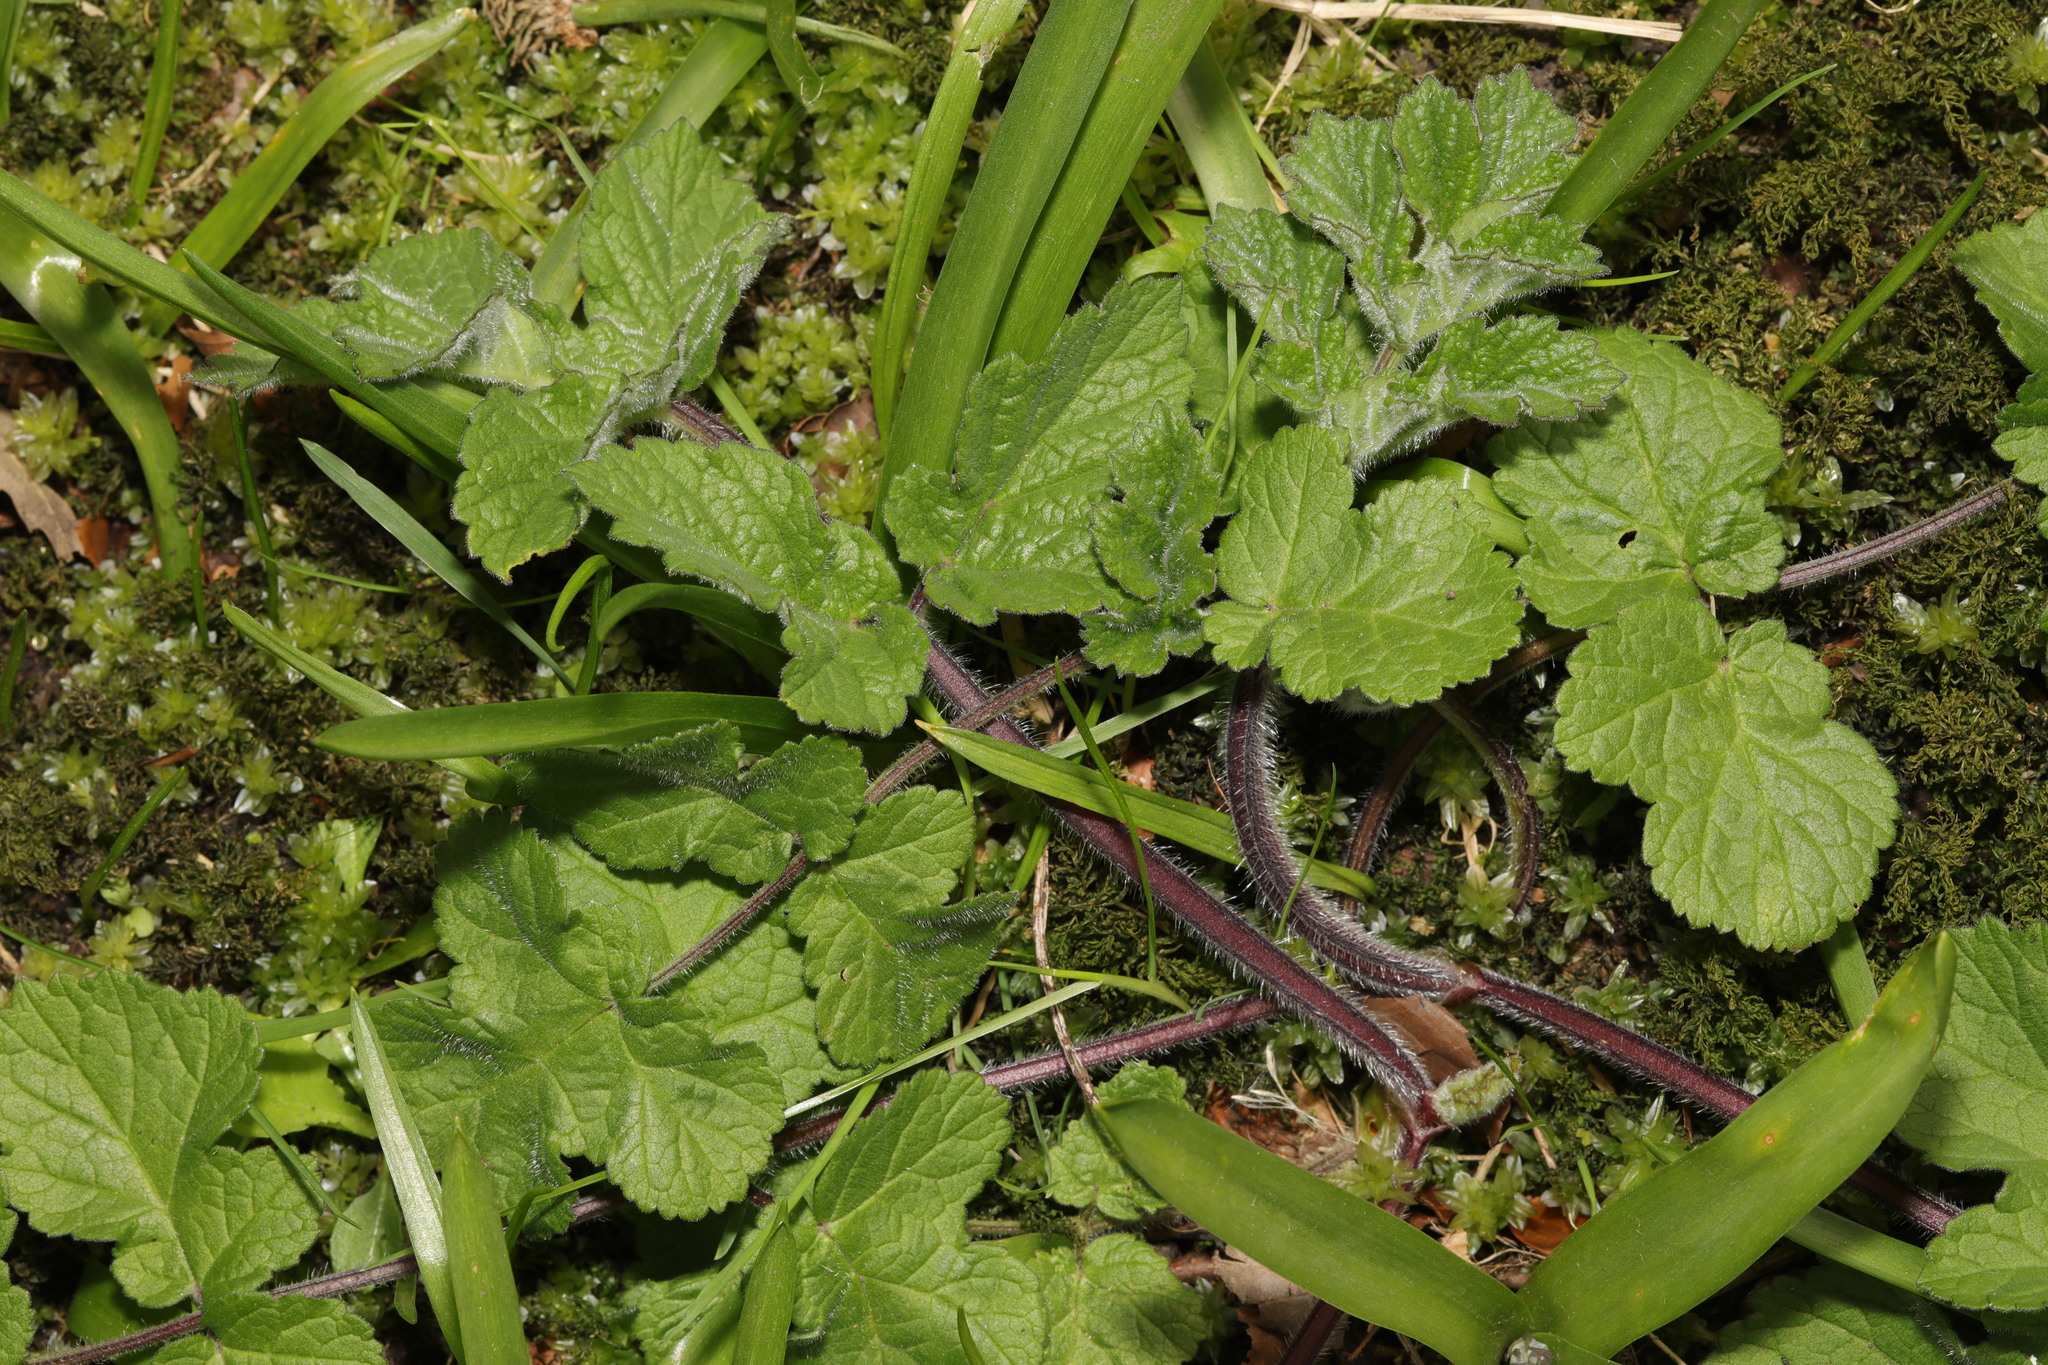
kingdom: Plantae
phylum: Tracheophyta
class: Magnoliopsida
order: Apiales
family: Apiaceae
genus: Heracleum
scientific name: Heracleum sphondylium
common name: Hogweed
